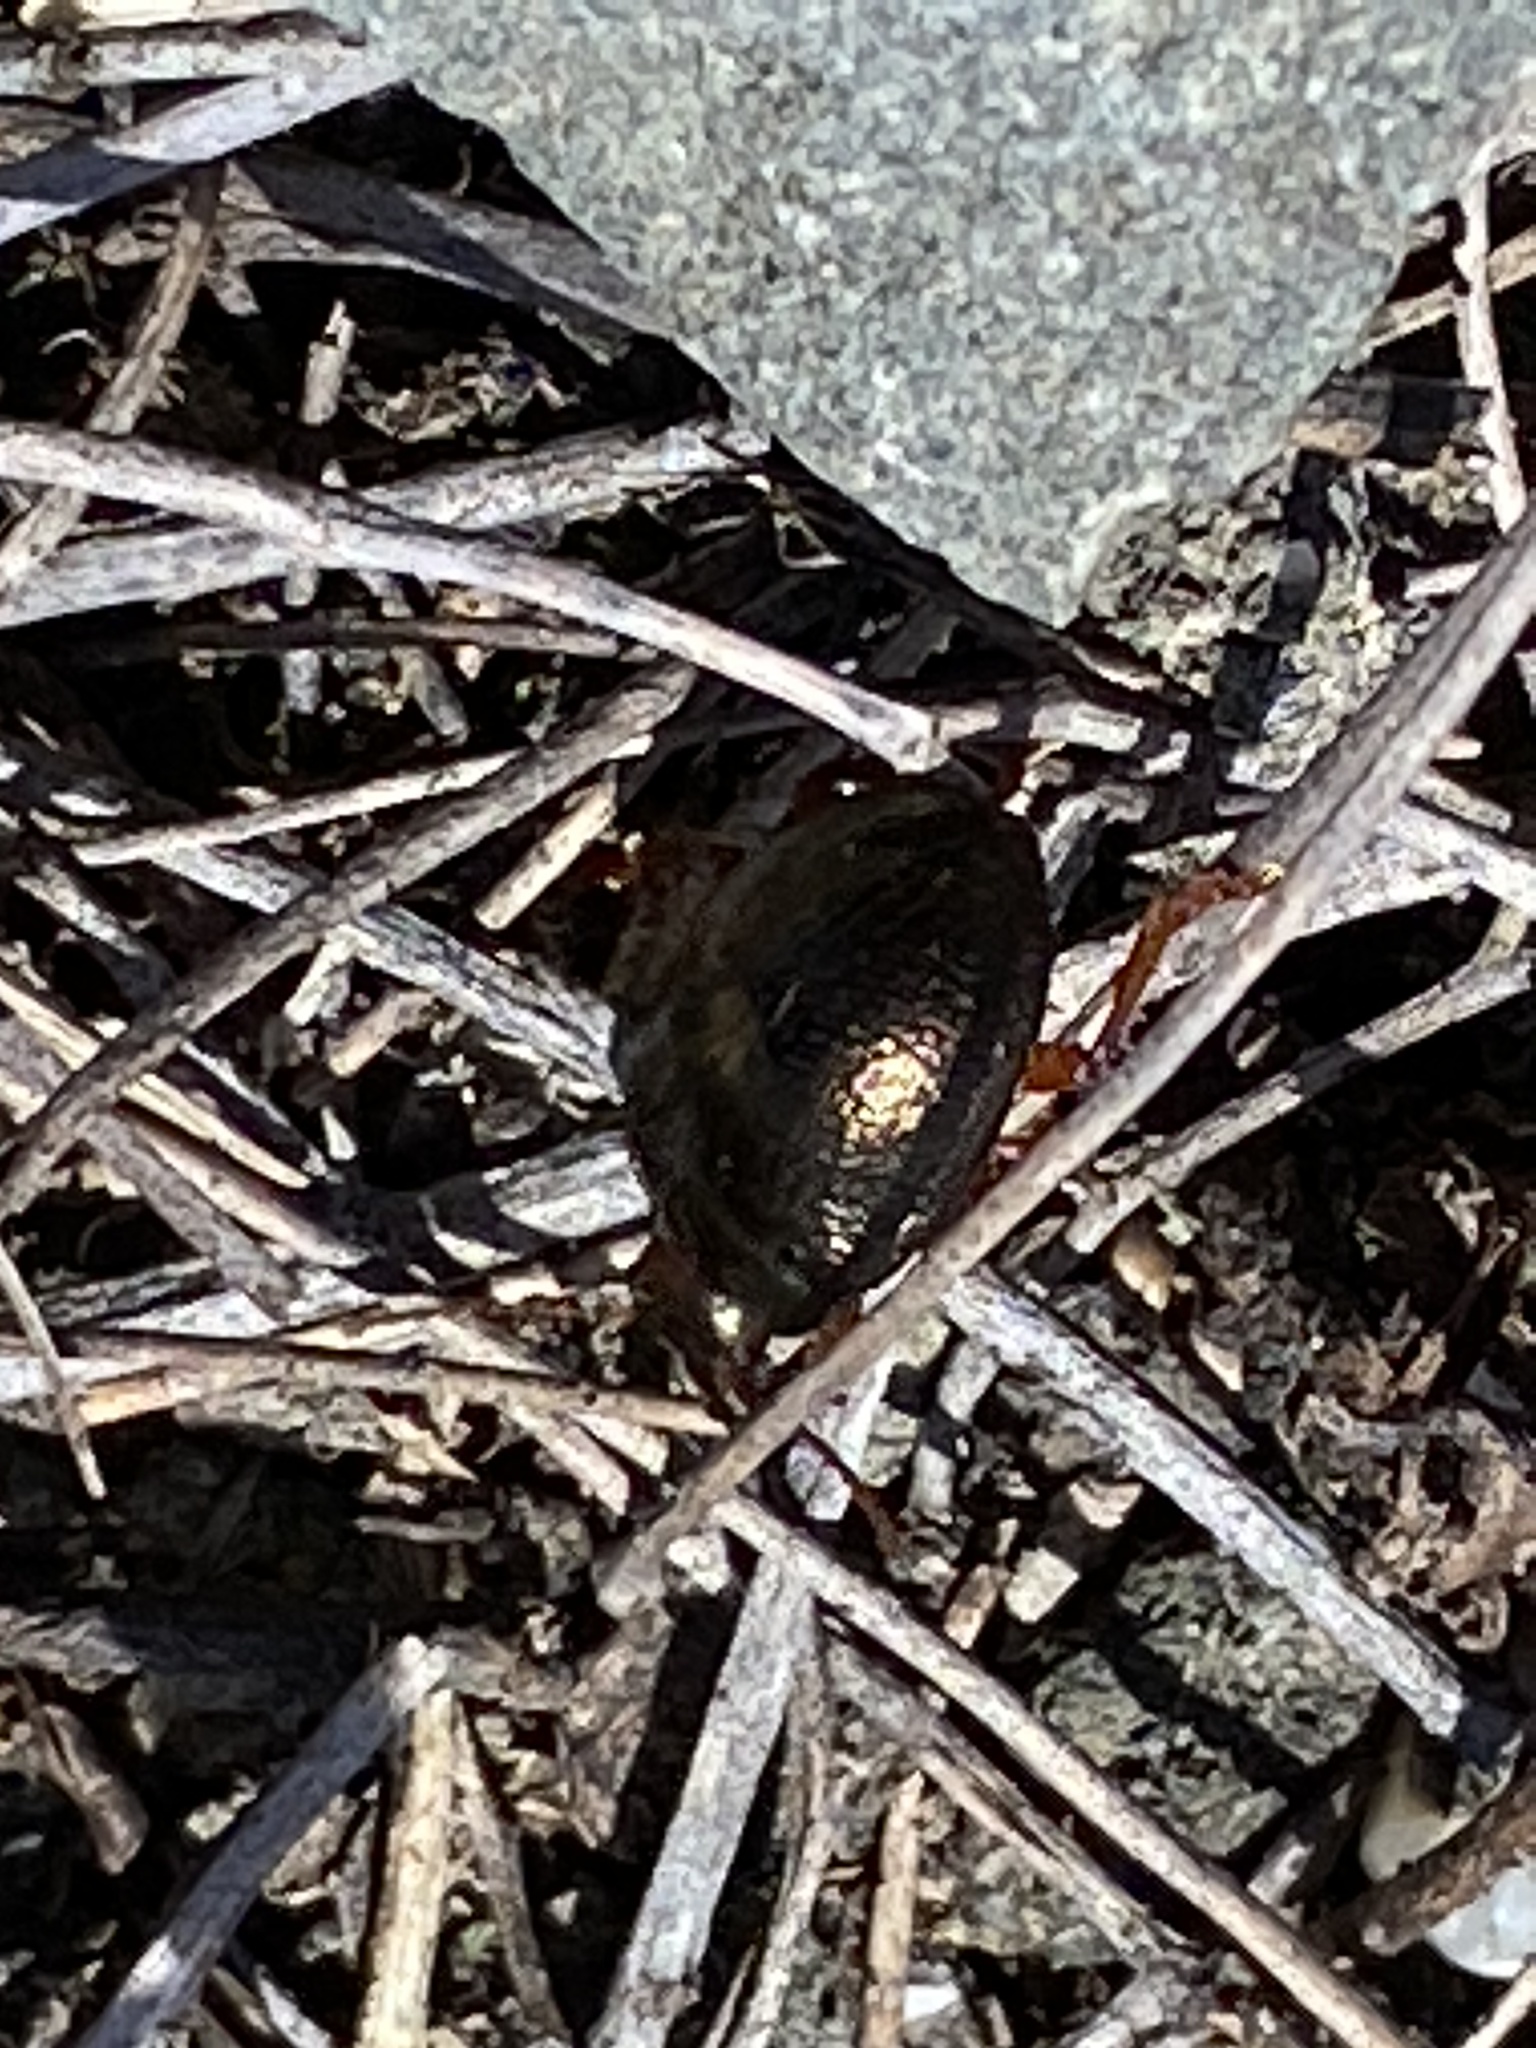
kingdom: Animalia
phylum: Arthropoda
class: Insecta
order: Coleoptera
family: Chrysomelidae
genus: Chrysolina
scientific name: Chrysolina bankii
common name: Leaf beetle
